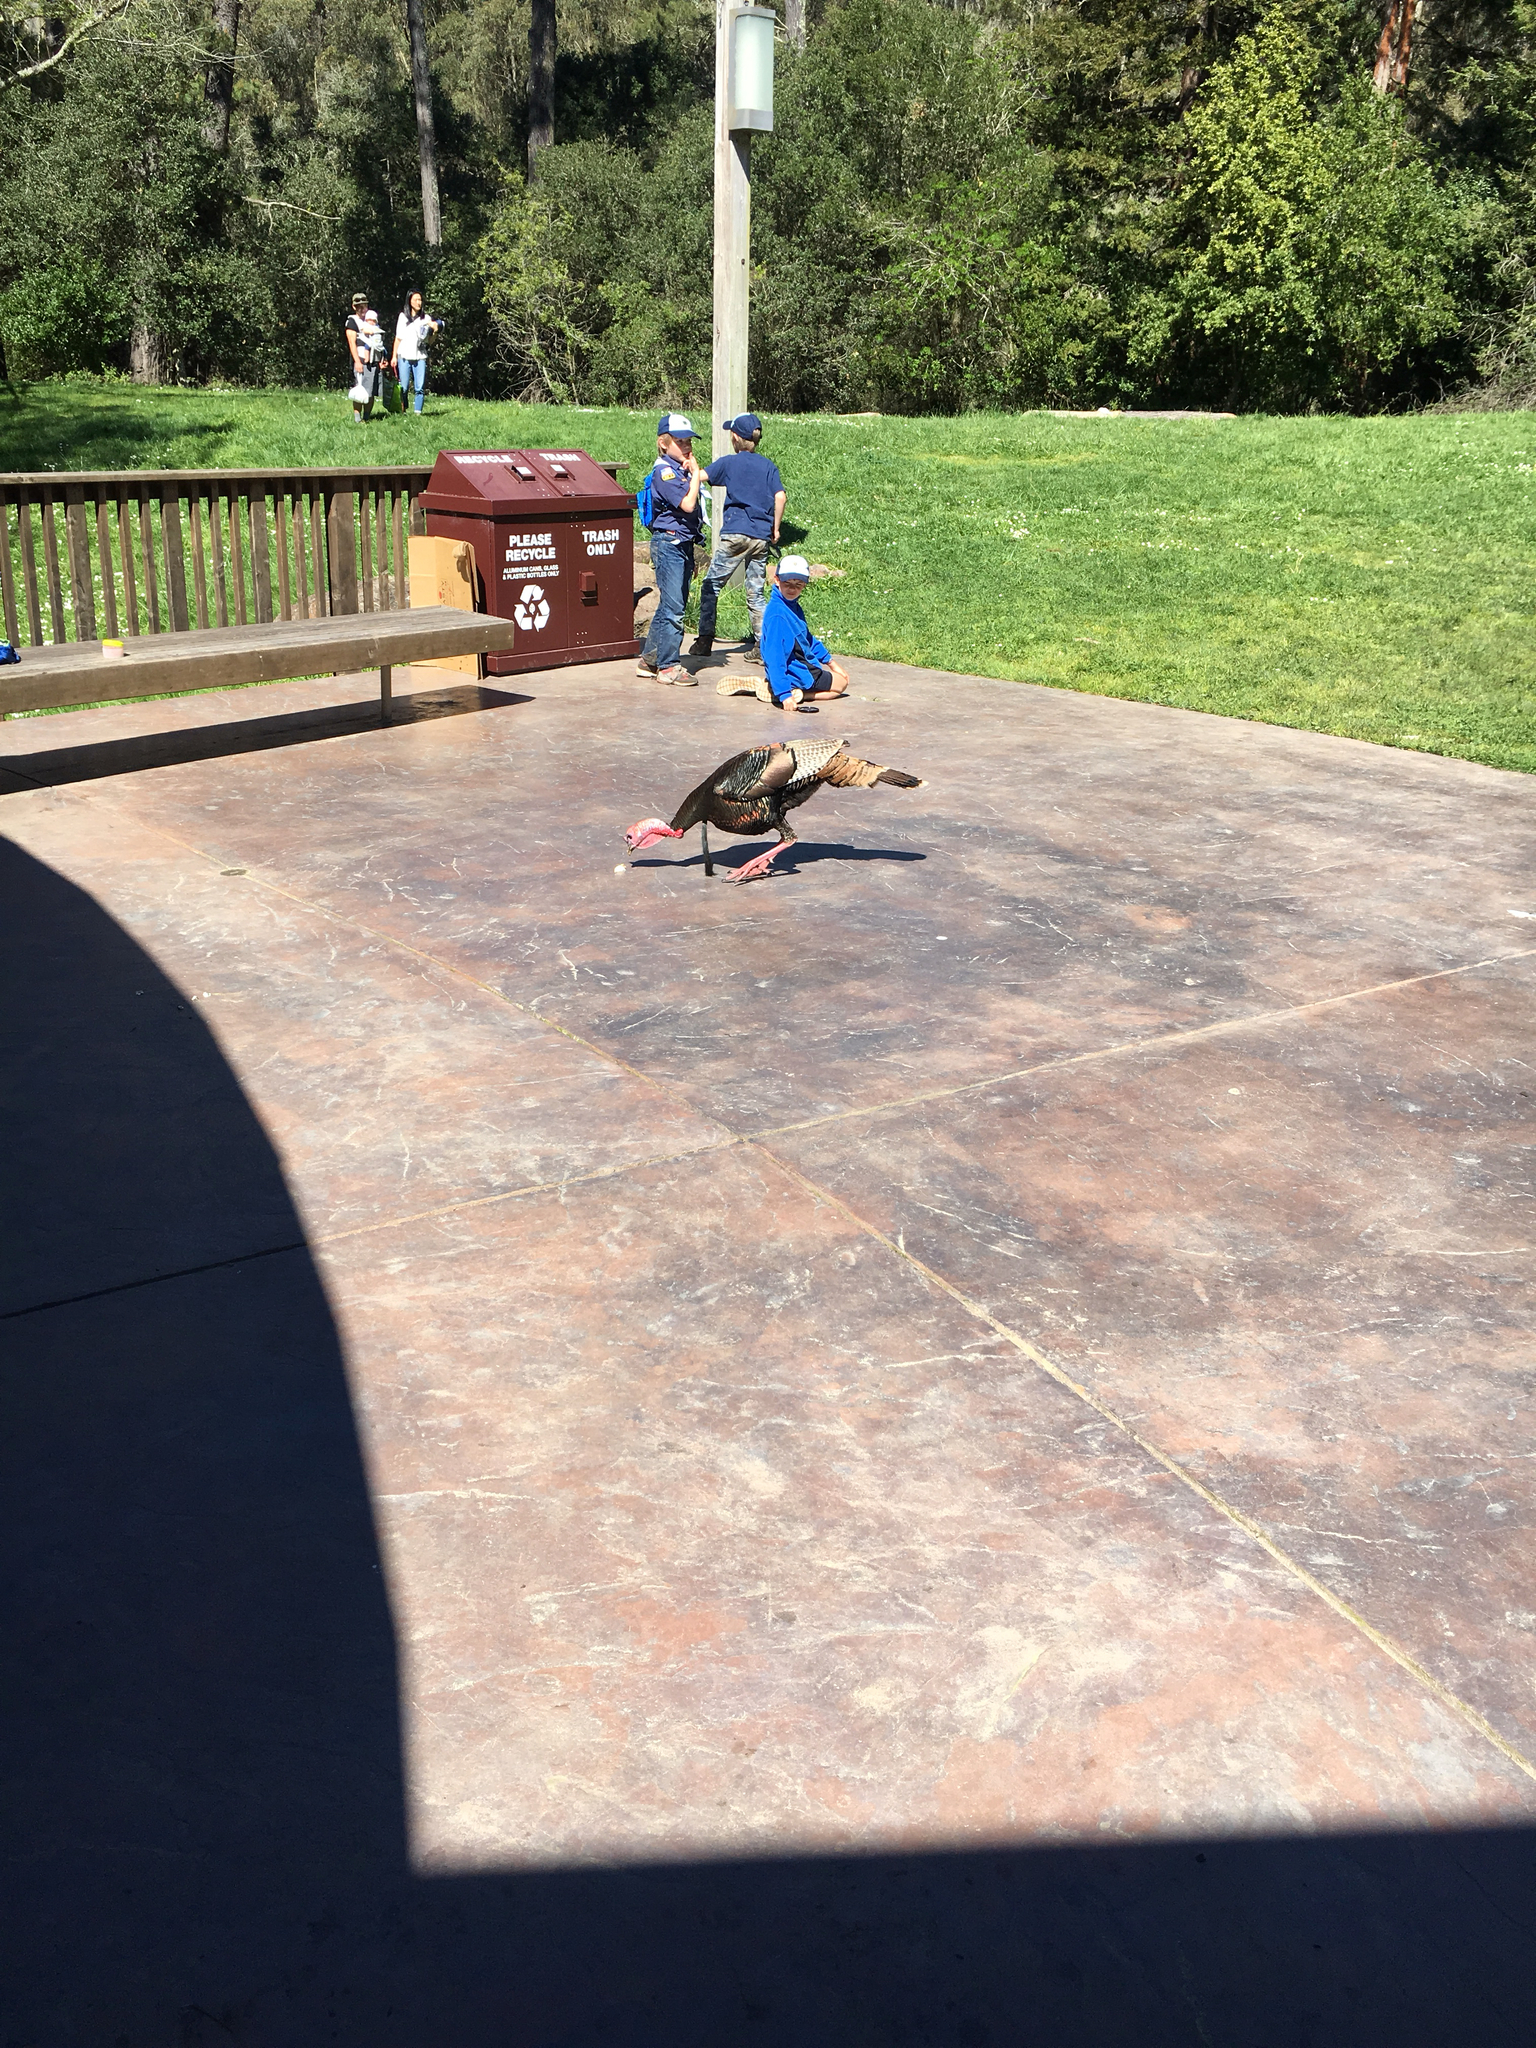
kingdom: Animalia
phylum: Chordata
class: Aves
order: Galliformes
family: Phasianidae
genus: Meleagris
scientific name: Meleagris gallopavo
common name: Wild turkey
